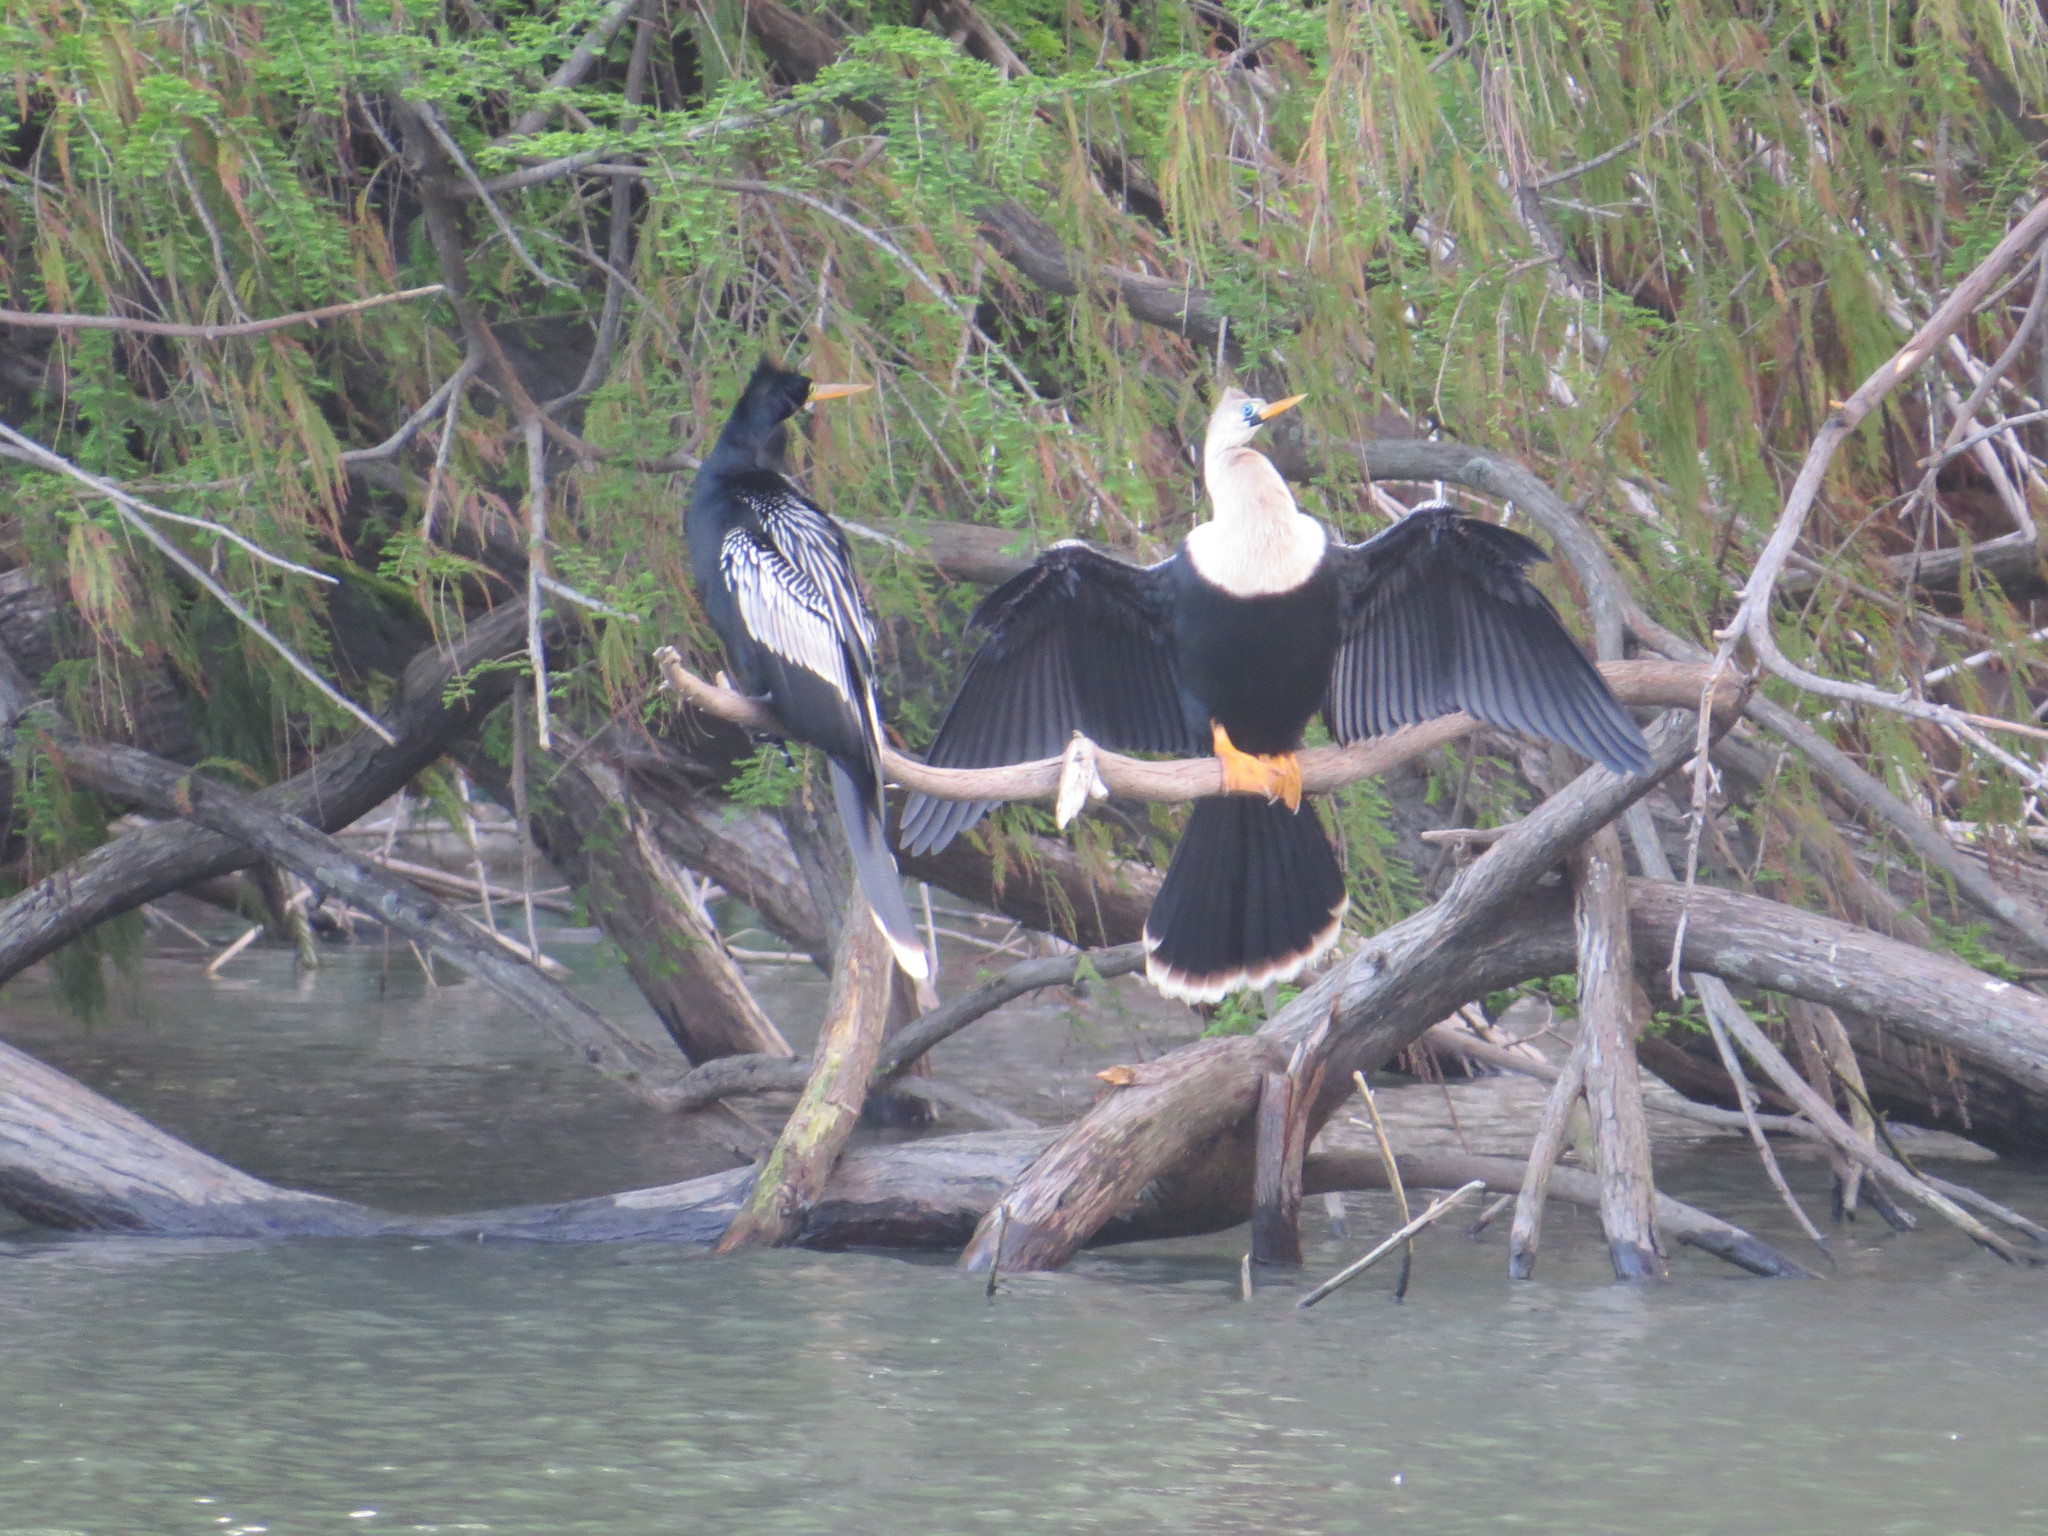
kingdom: Animalia
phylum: Chordata
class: Aves
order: Suliformes
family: Anhingidae
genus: Anhinga
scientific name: Anhinga anhinga
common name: Anhinga
